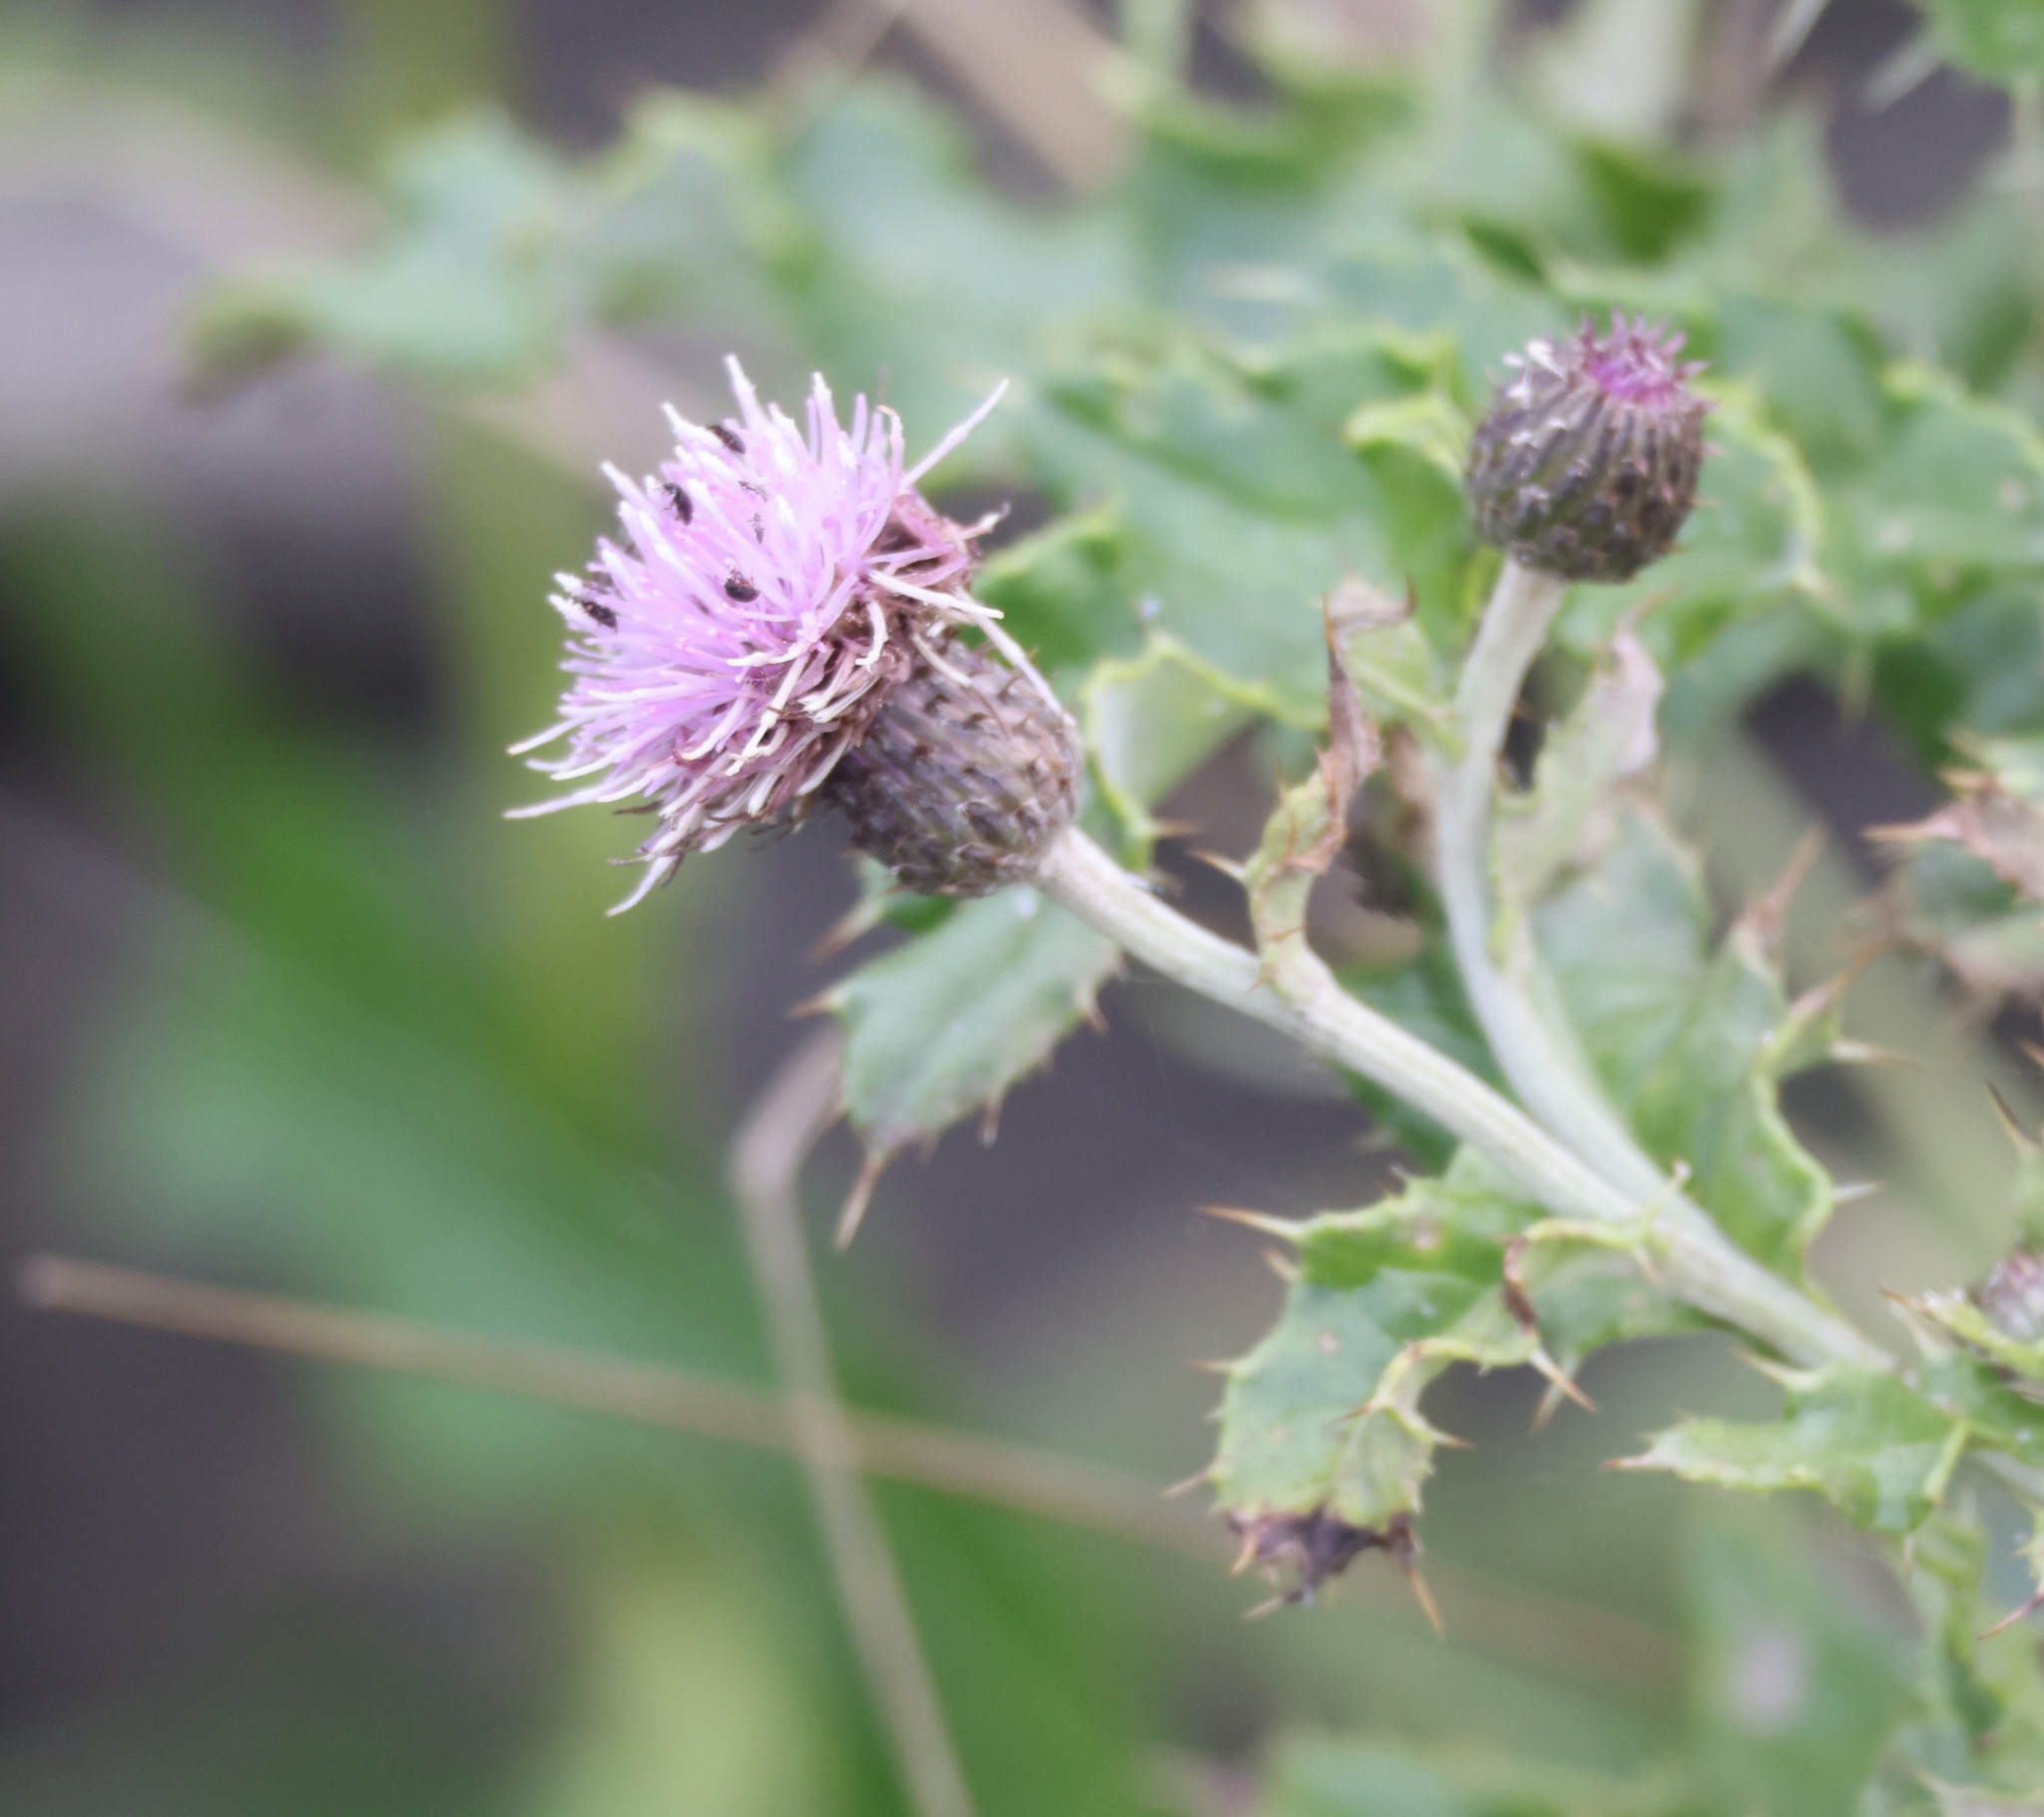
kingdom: Plantae
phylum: Tracheophyta
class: Magnoliopsida
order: Asterales
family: Asteraceae
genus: Cirsium
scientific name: Cirsium arvense
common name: Creeping thistle
